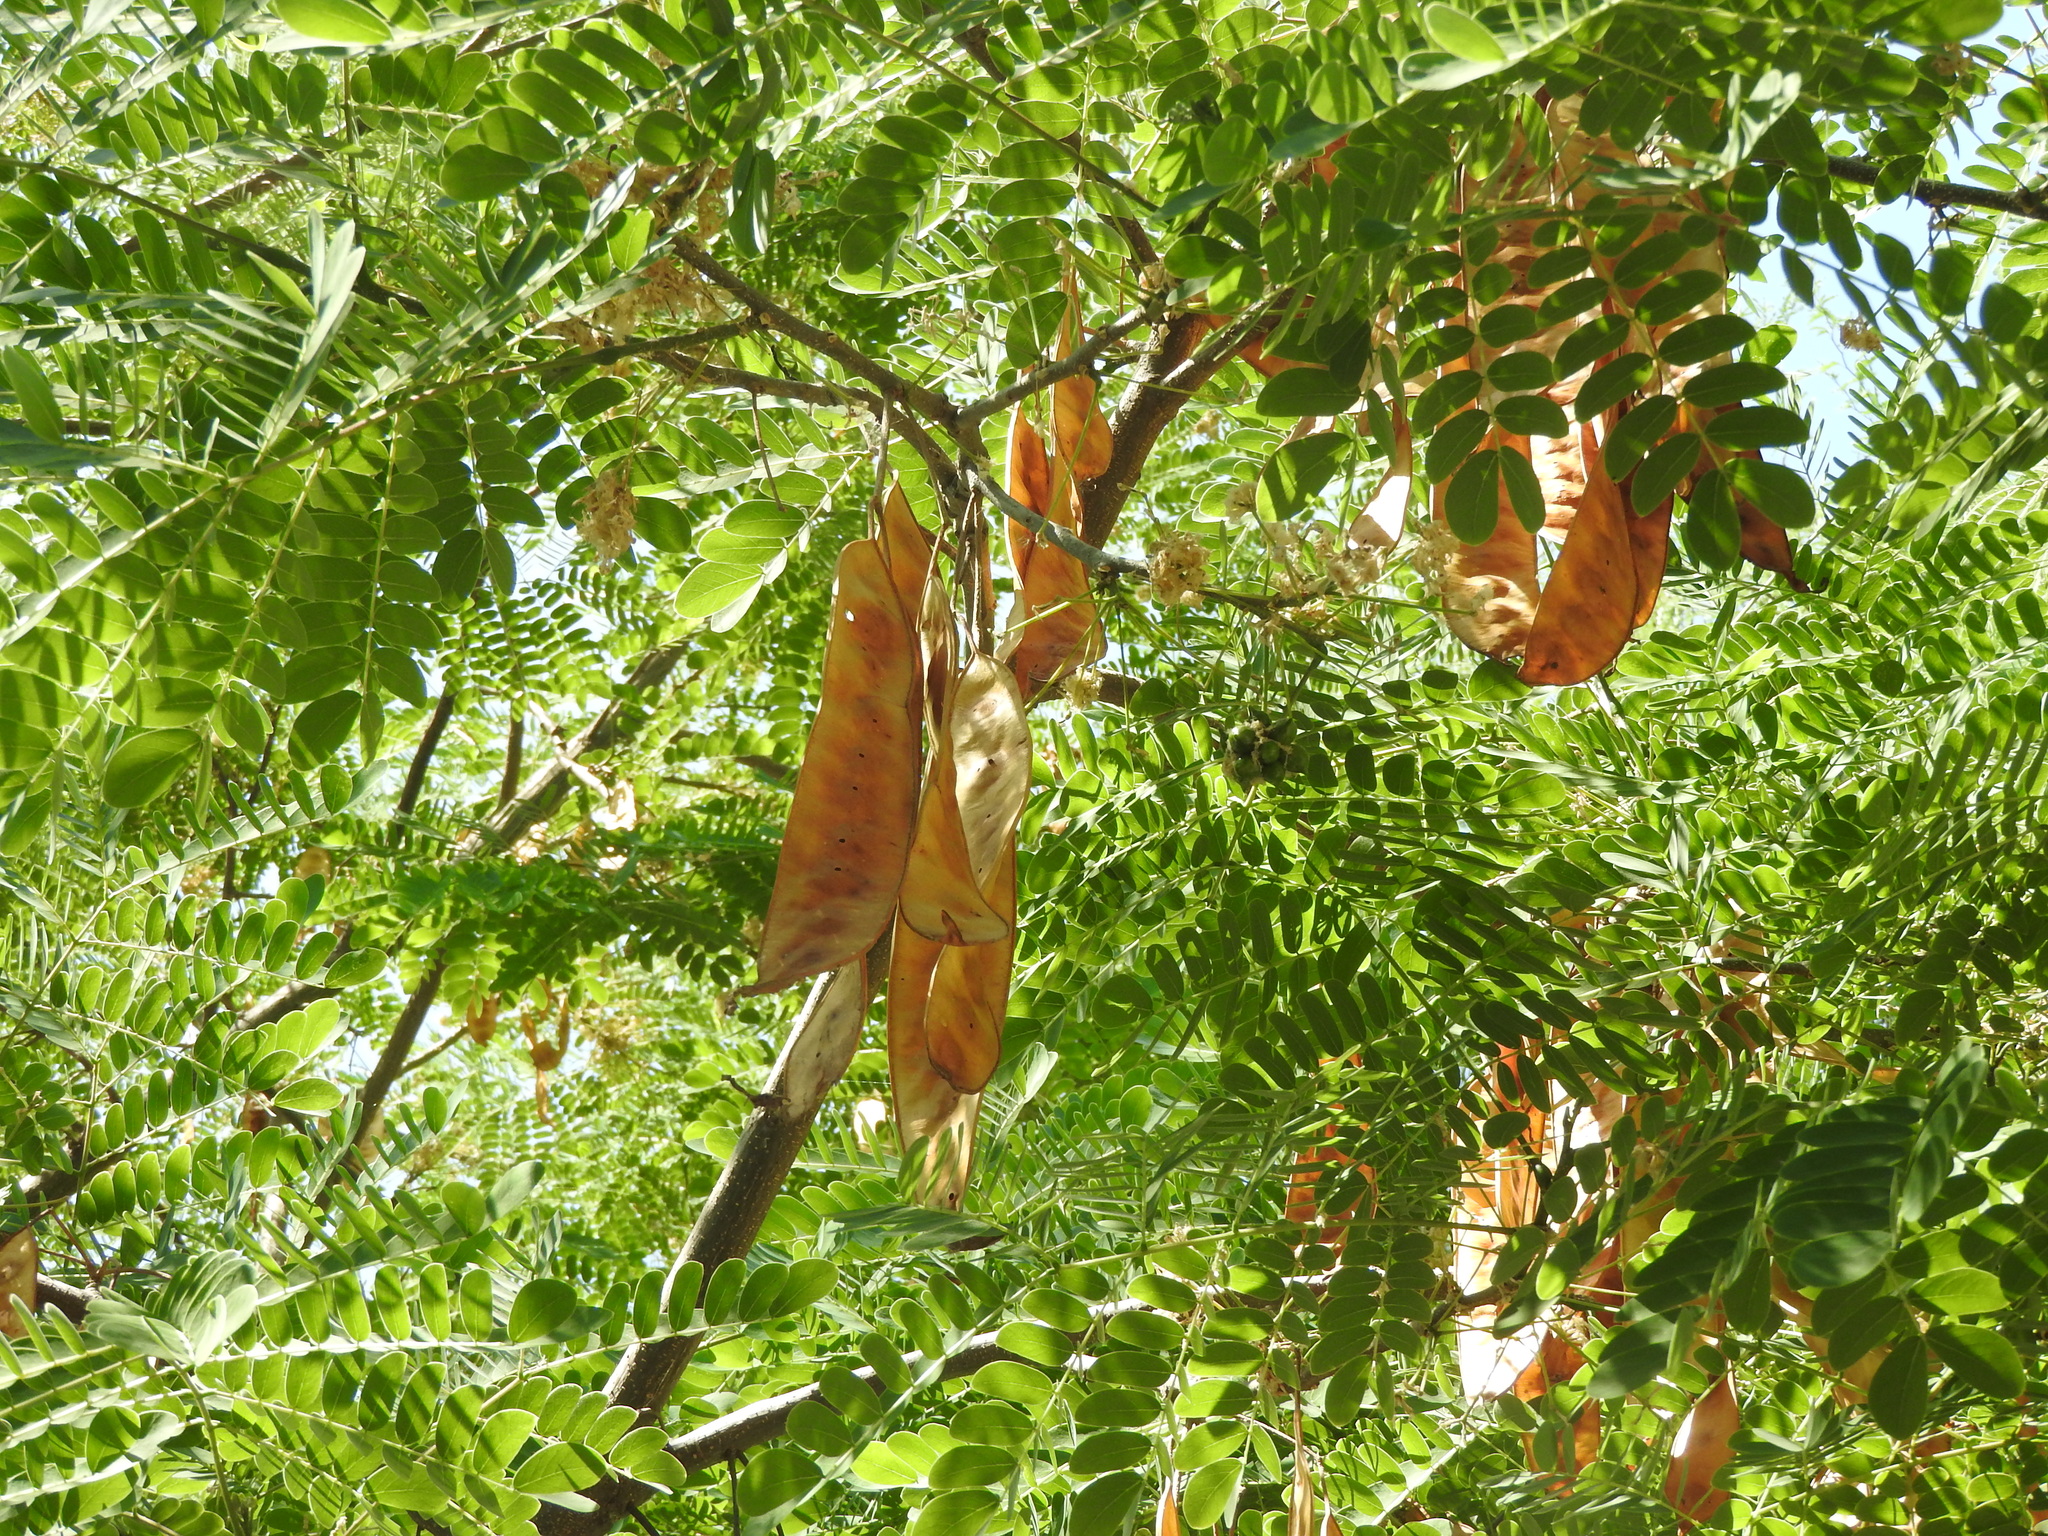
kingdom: Plantae
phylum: Tracheophyta
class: Magnoliopsida
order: Fabales
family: Fabaceae
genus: Albizia
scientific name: Albizia occidentalis
